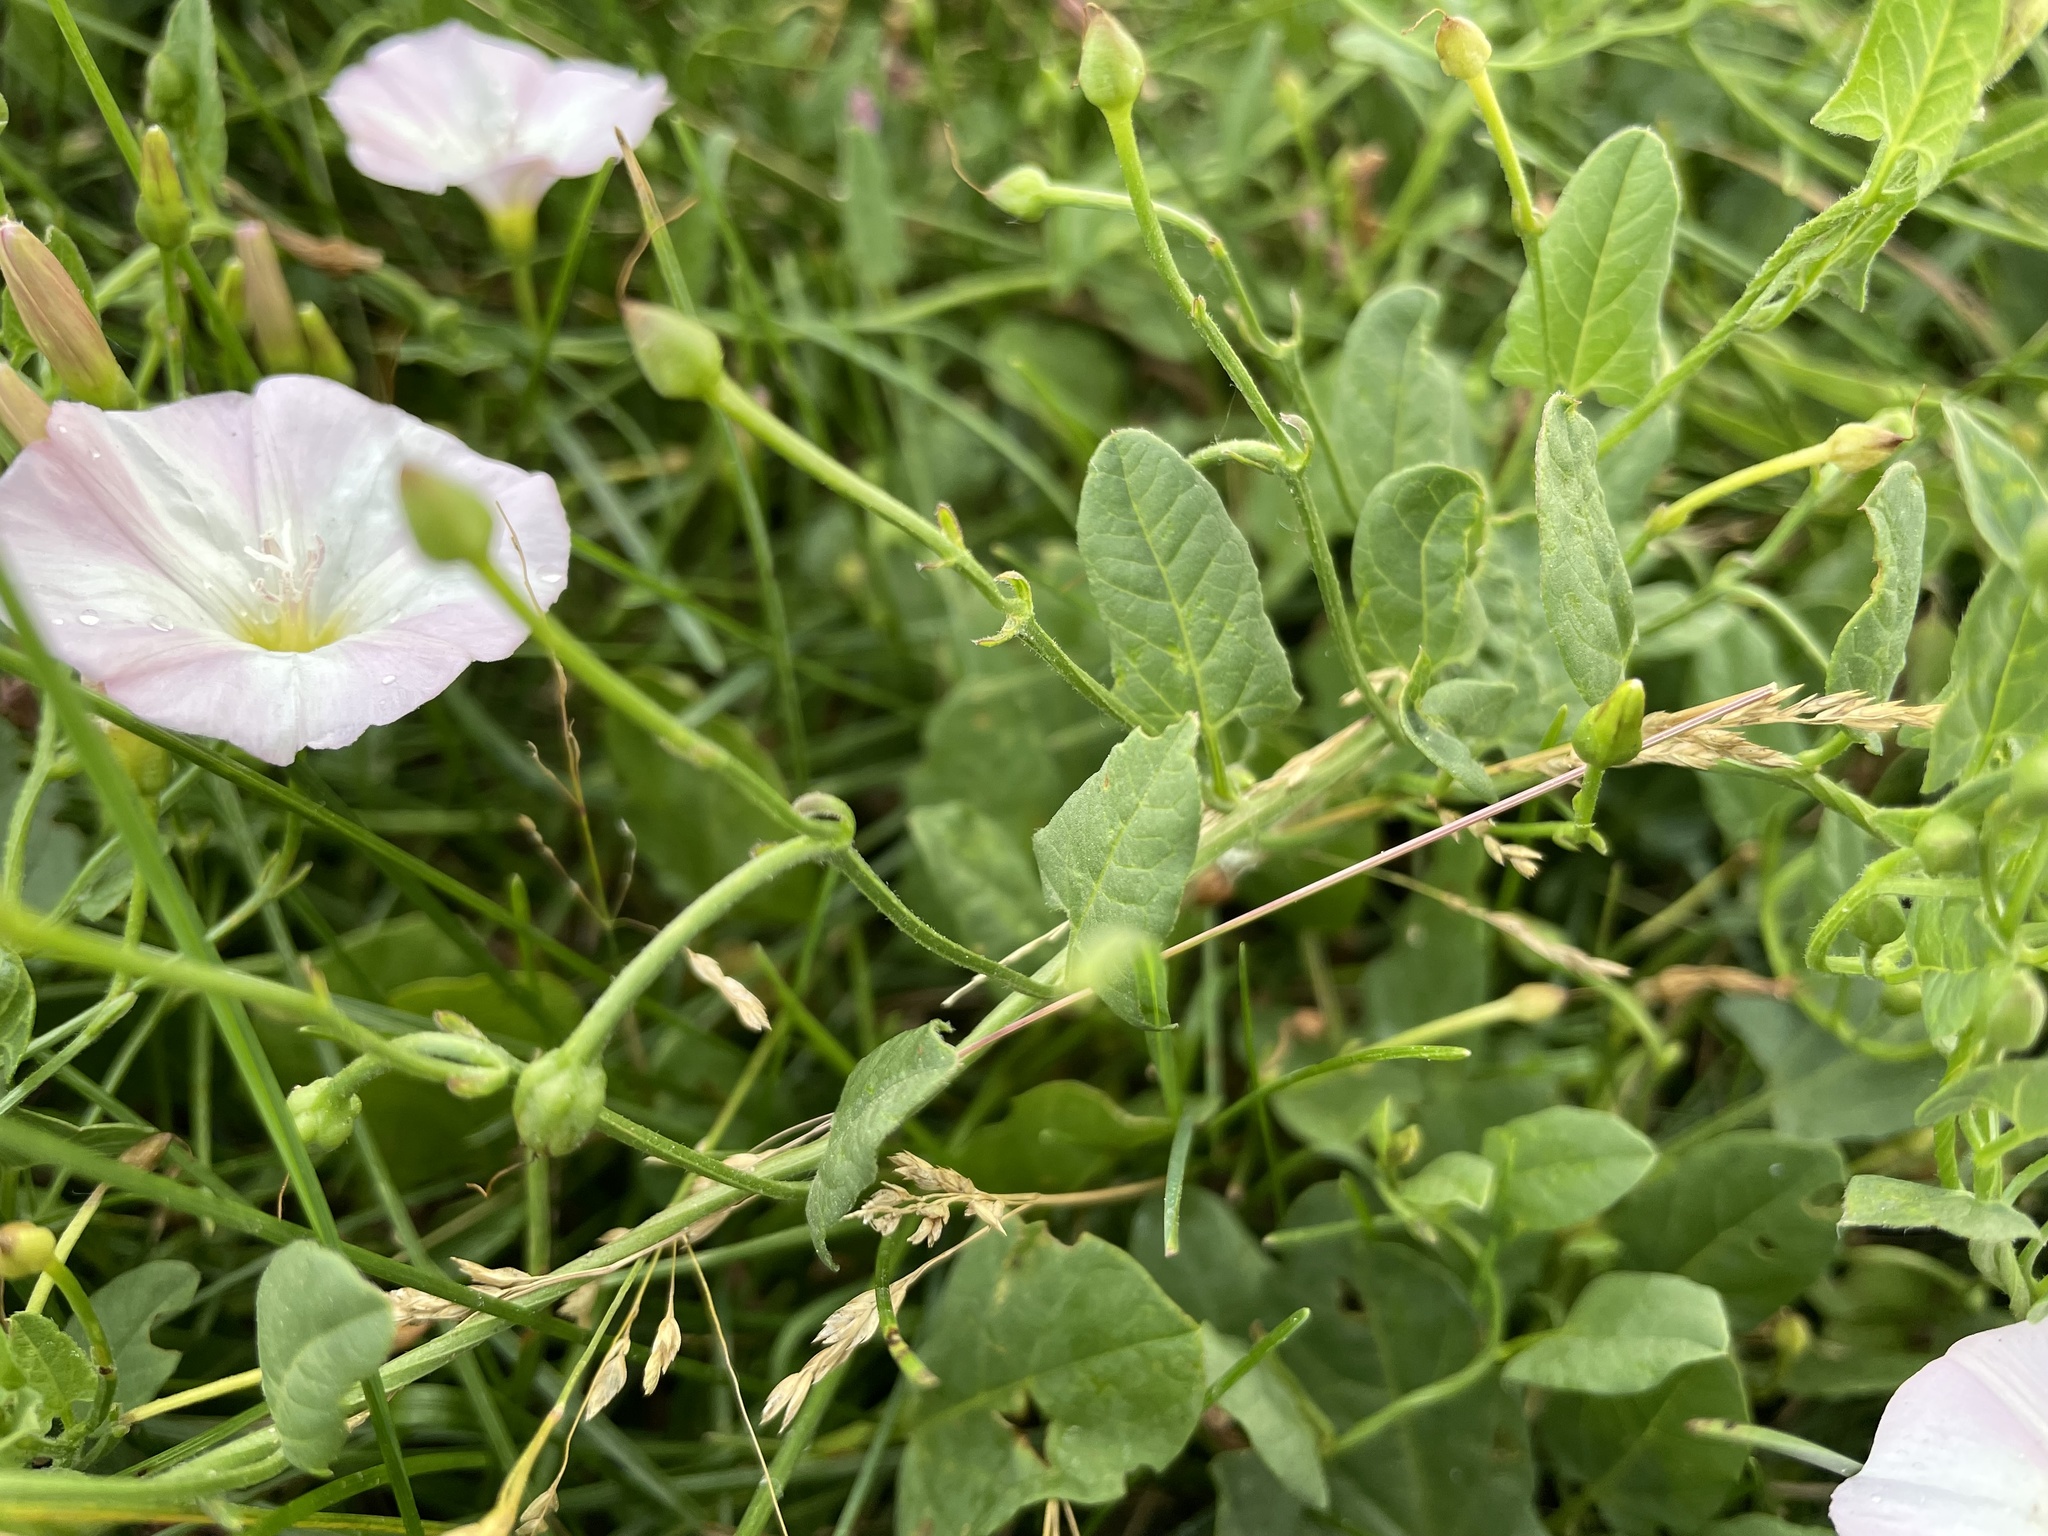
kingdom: Plantae
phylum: Tracheophyta
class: Magnoliopsida
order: Solanales
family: Convolvulaceae
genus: Convolvulus
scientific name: Convolvulus arvensis
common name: Field bindweed
